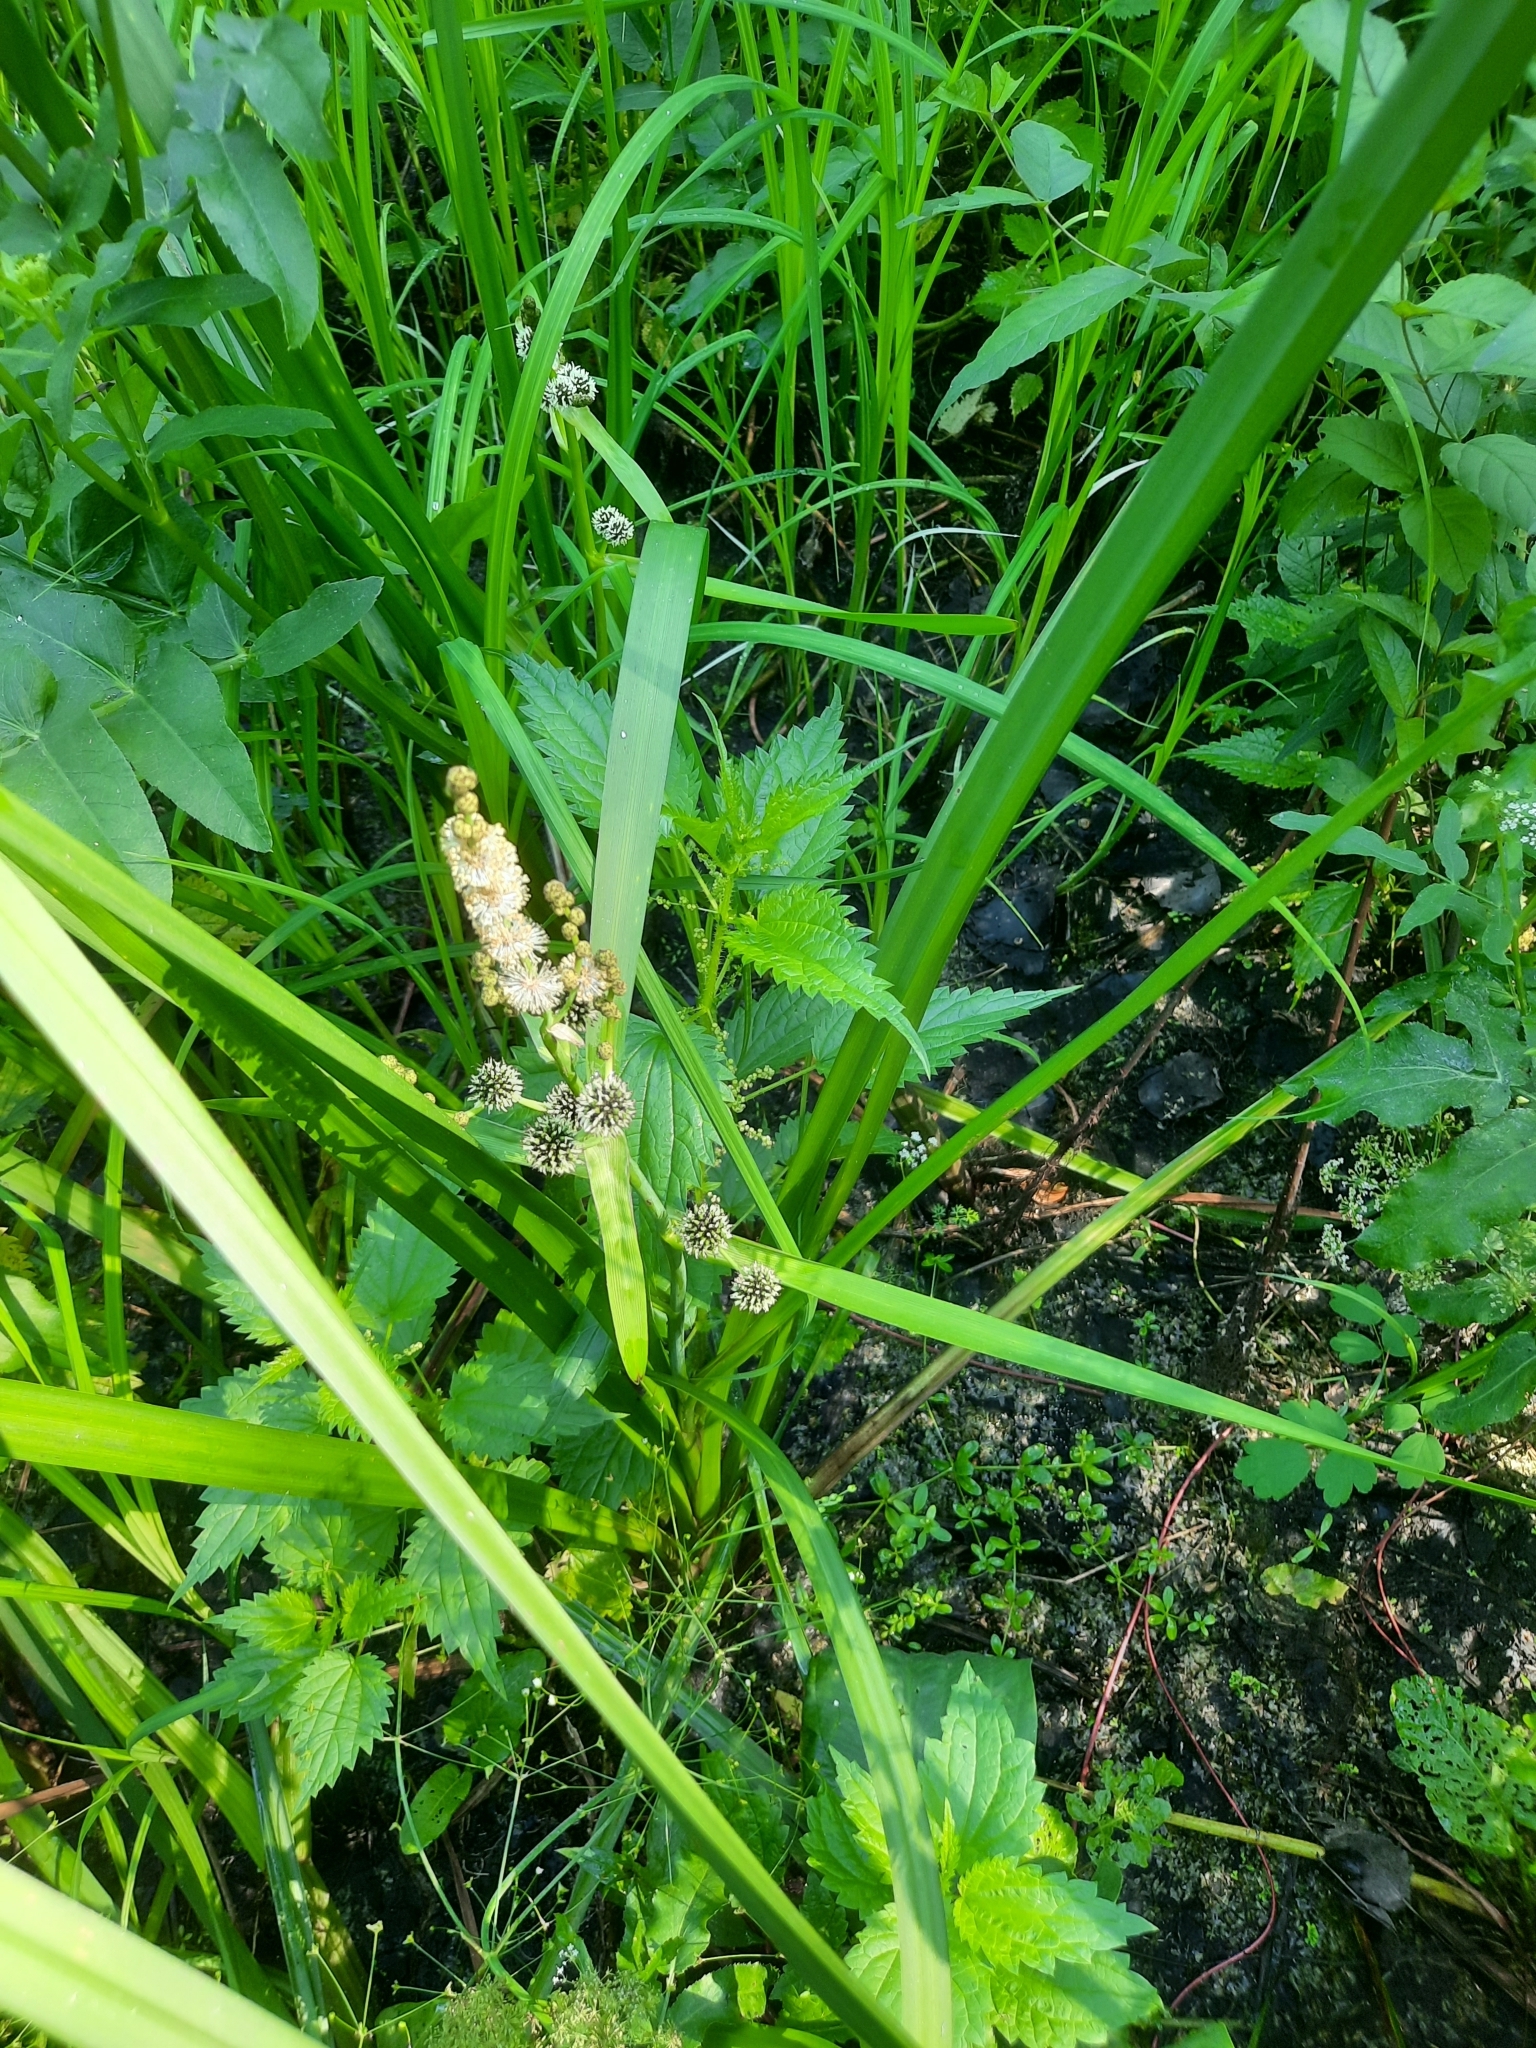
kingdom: Plantae
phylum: Tracheophyta
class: Liliopsida
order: Poales
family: Typhaceae
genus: Sparganium
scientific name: Sparganium erectum
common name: Branched bur-reed
